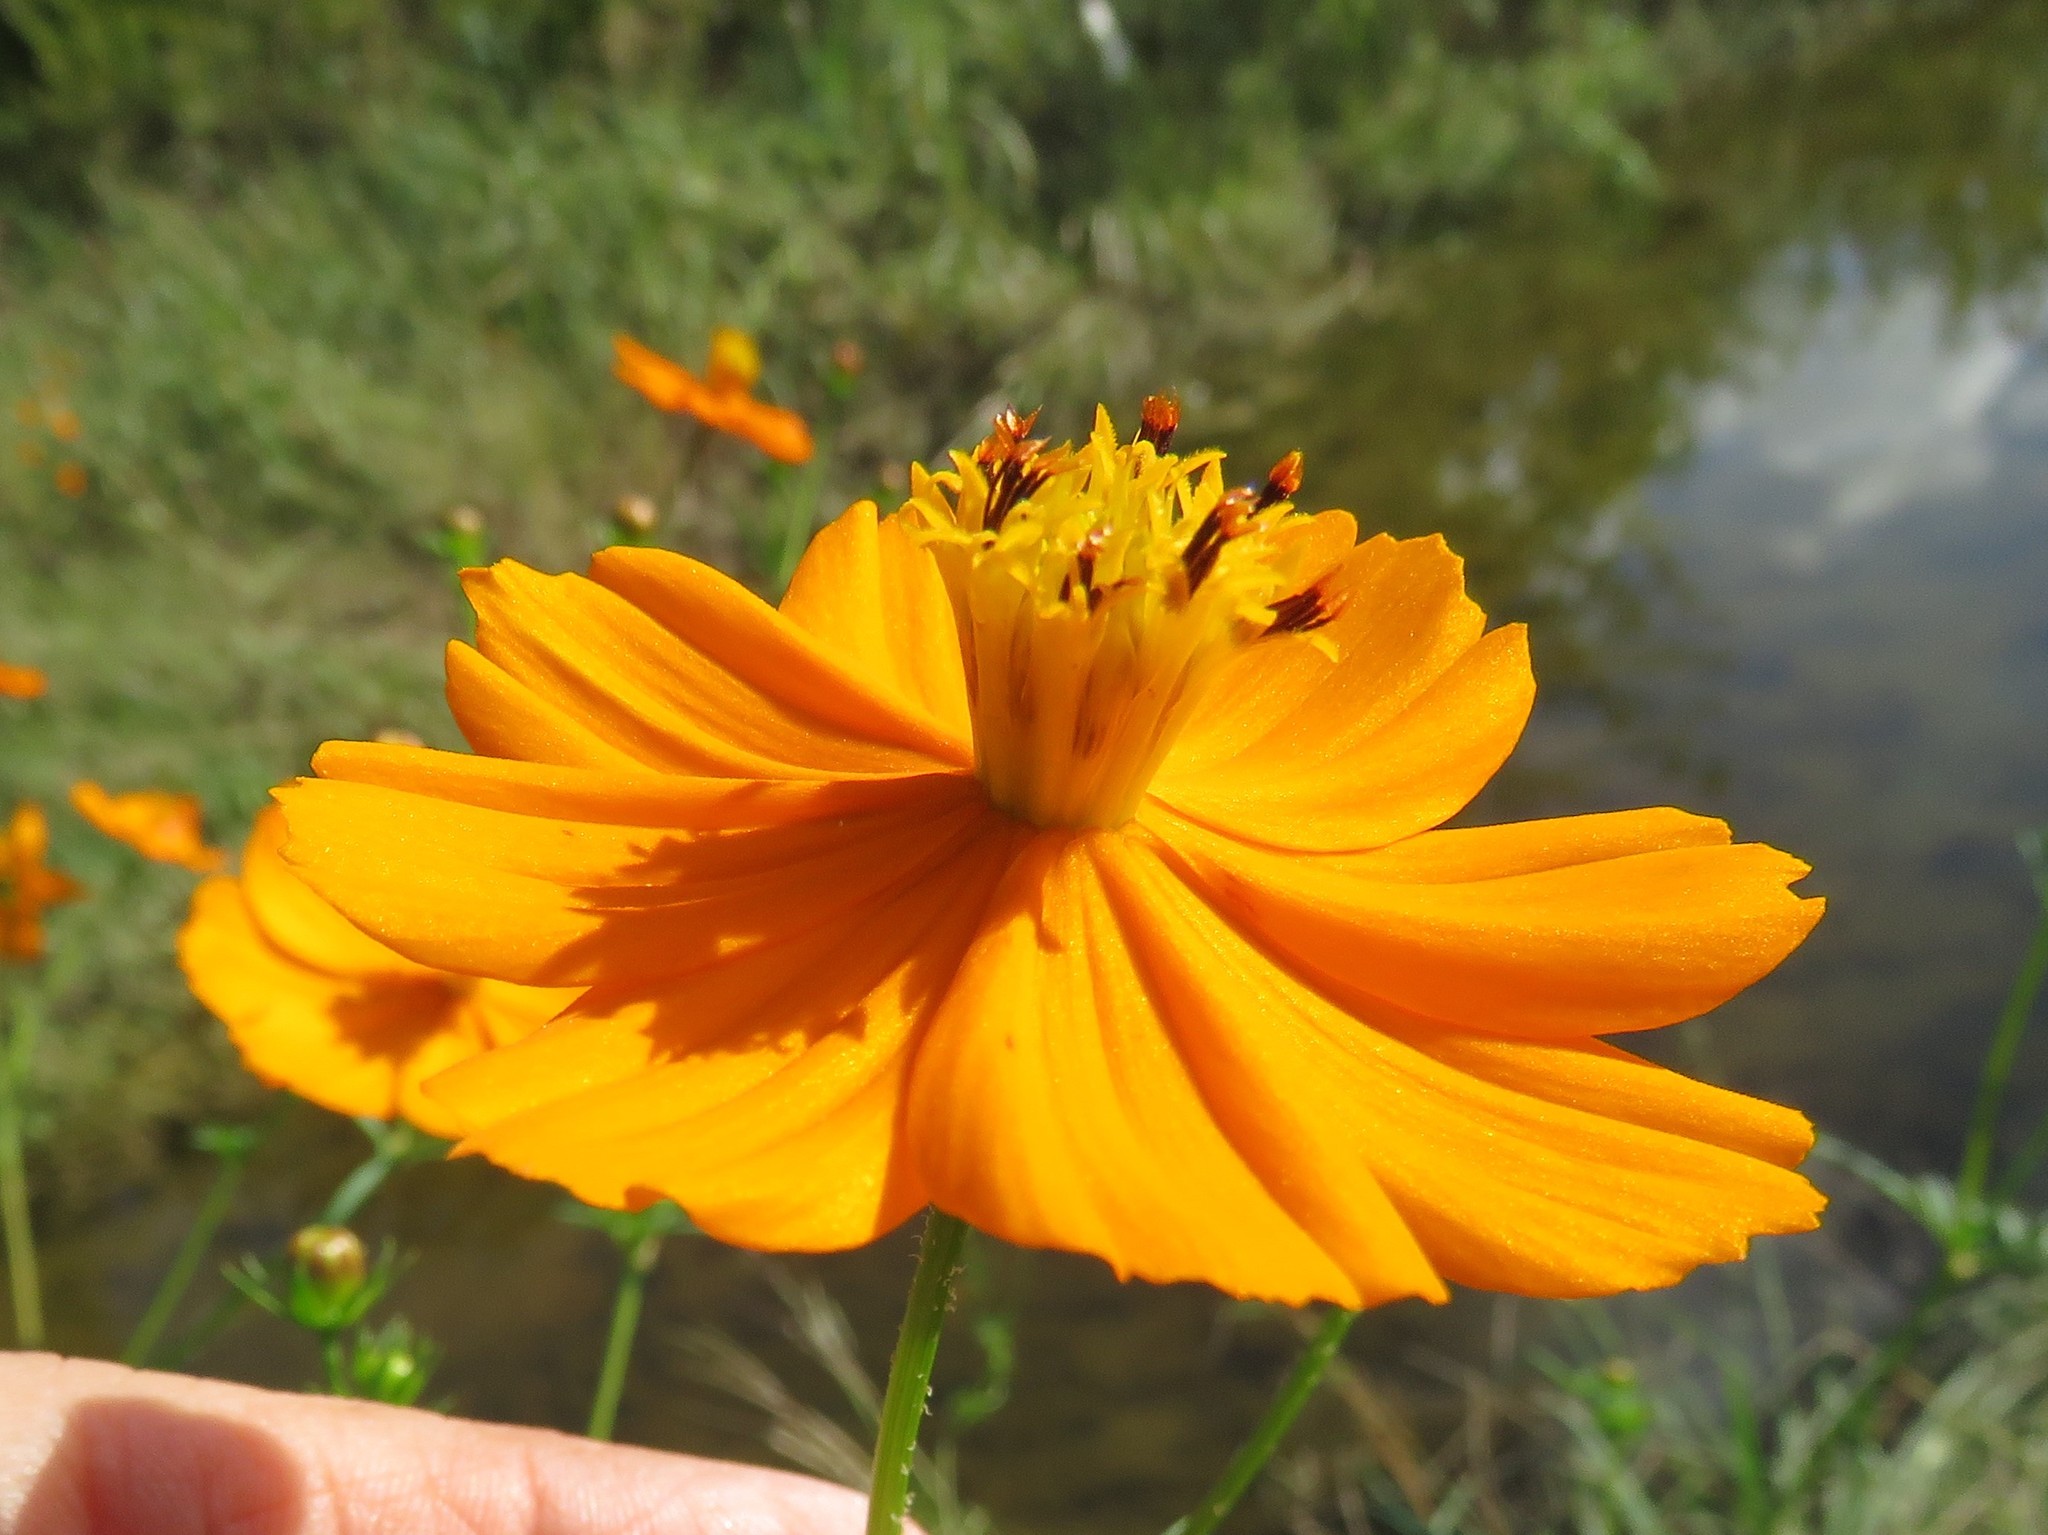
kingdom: Plantae
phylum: Tracheophyta
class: Magnoliopsida
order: Asterales
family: Asteraceae
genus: Cosmos
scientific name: Cosmos sulphureus
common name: Sulphur cosmos
